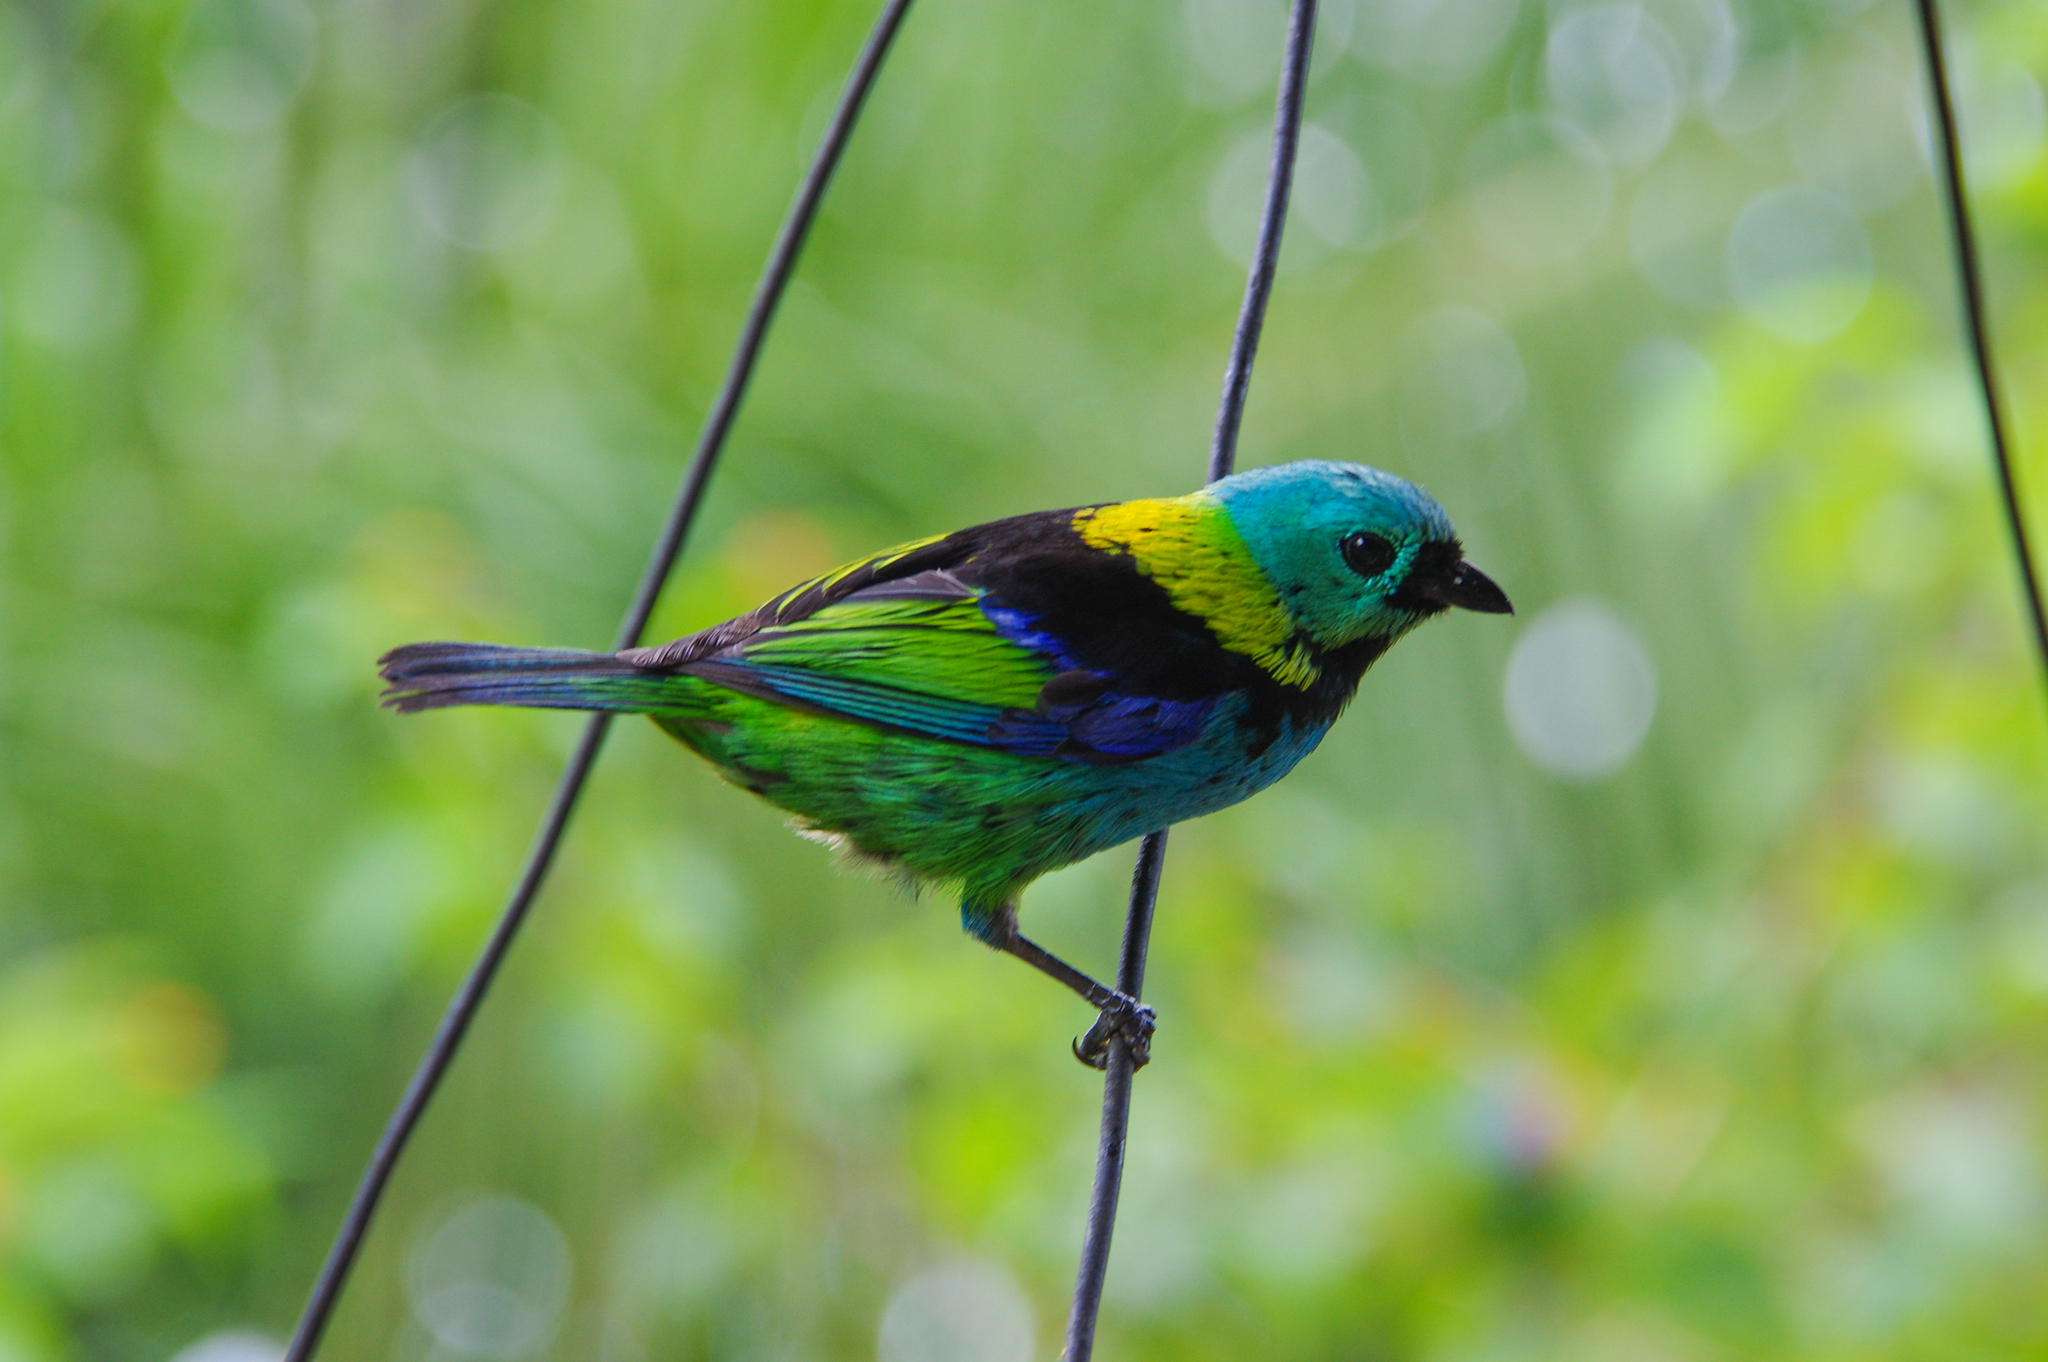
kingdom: Animalia
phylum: Chordata
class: Aves
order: Passeriformes
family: Thraupidae
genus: Tangara
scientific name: Tangara seledon
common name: Green-headed tanager
